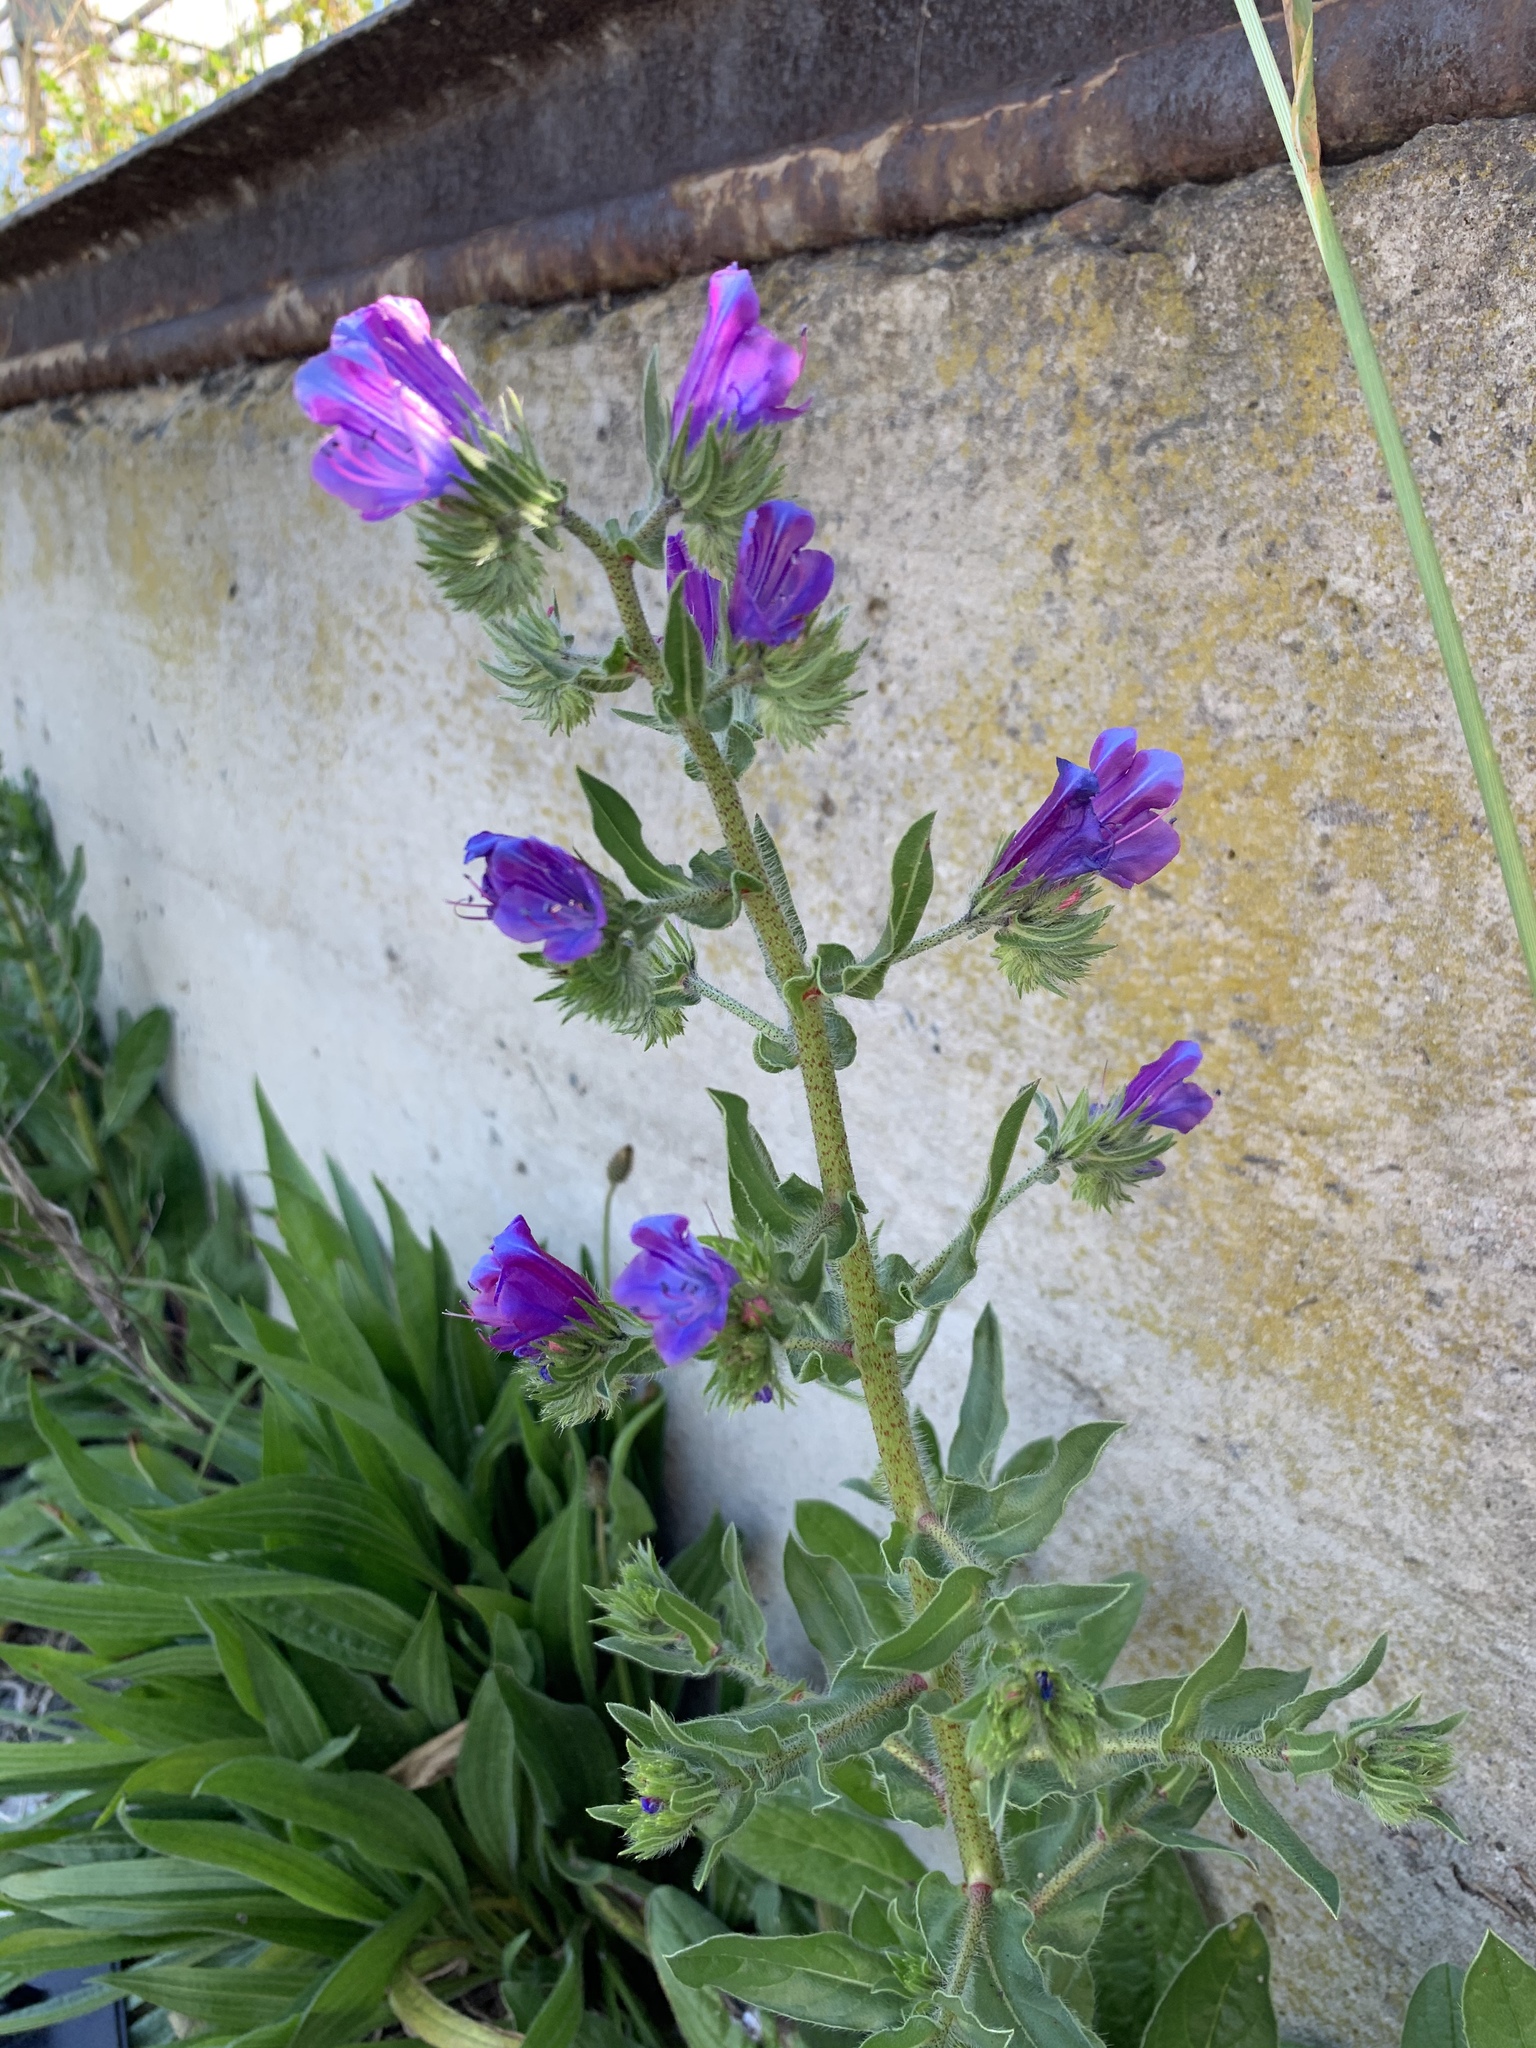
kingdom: Plantae
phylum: Tracheophyta
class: Magnoliopsida
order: Boraginales
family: Boraginaceae
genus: Echium
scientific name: Echium plantagineum
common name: Purple viper's-bugloss
